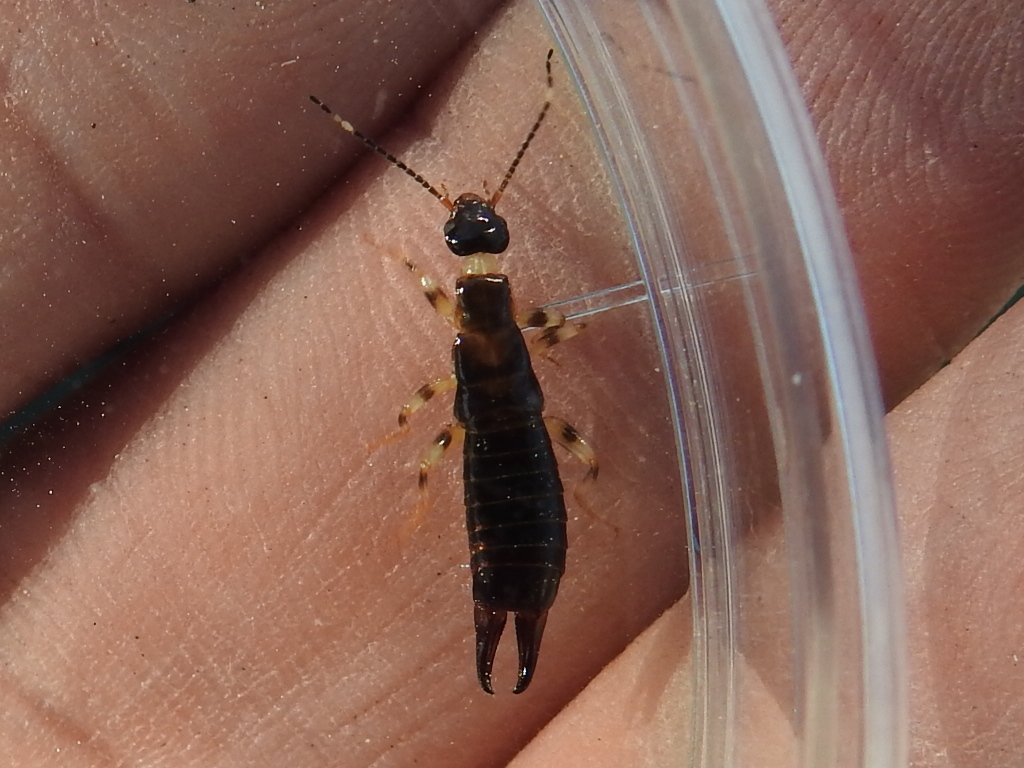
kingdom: Animalia
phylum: Arthropoda
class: Insecta
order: Dermaptera
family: Anisolabididae
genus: Euborellia
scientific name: Euborellia annulipes
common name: Ringlegged earwig
